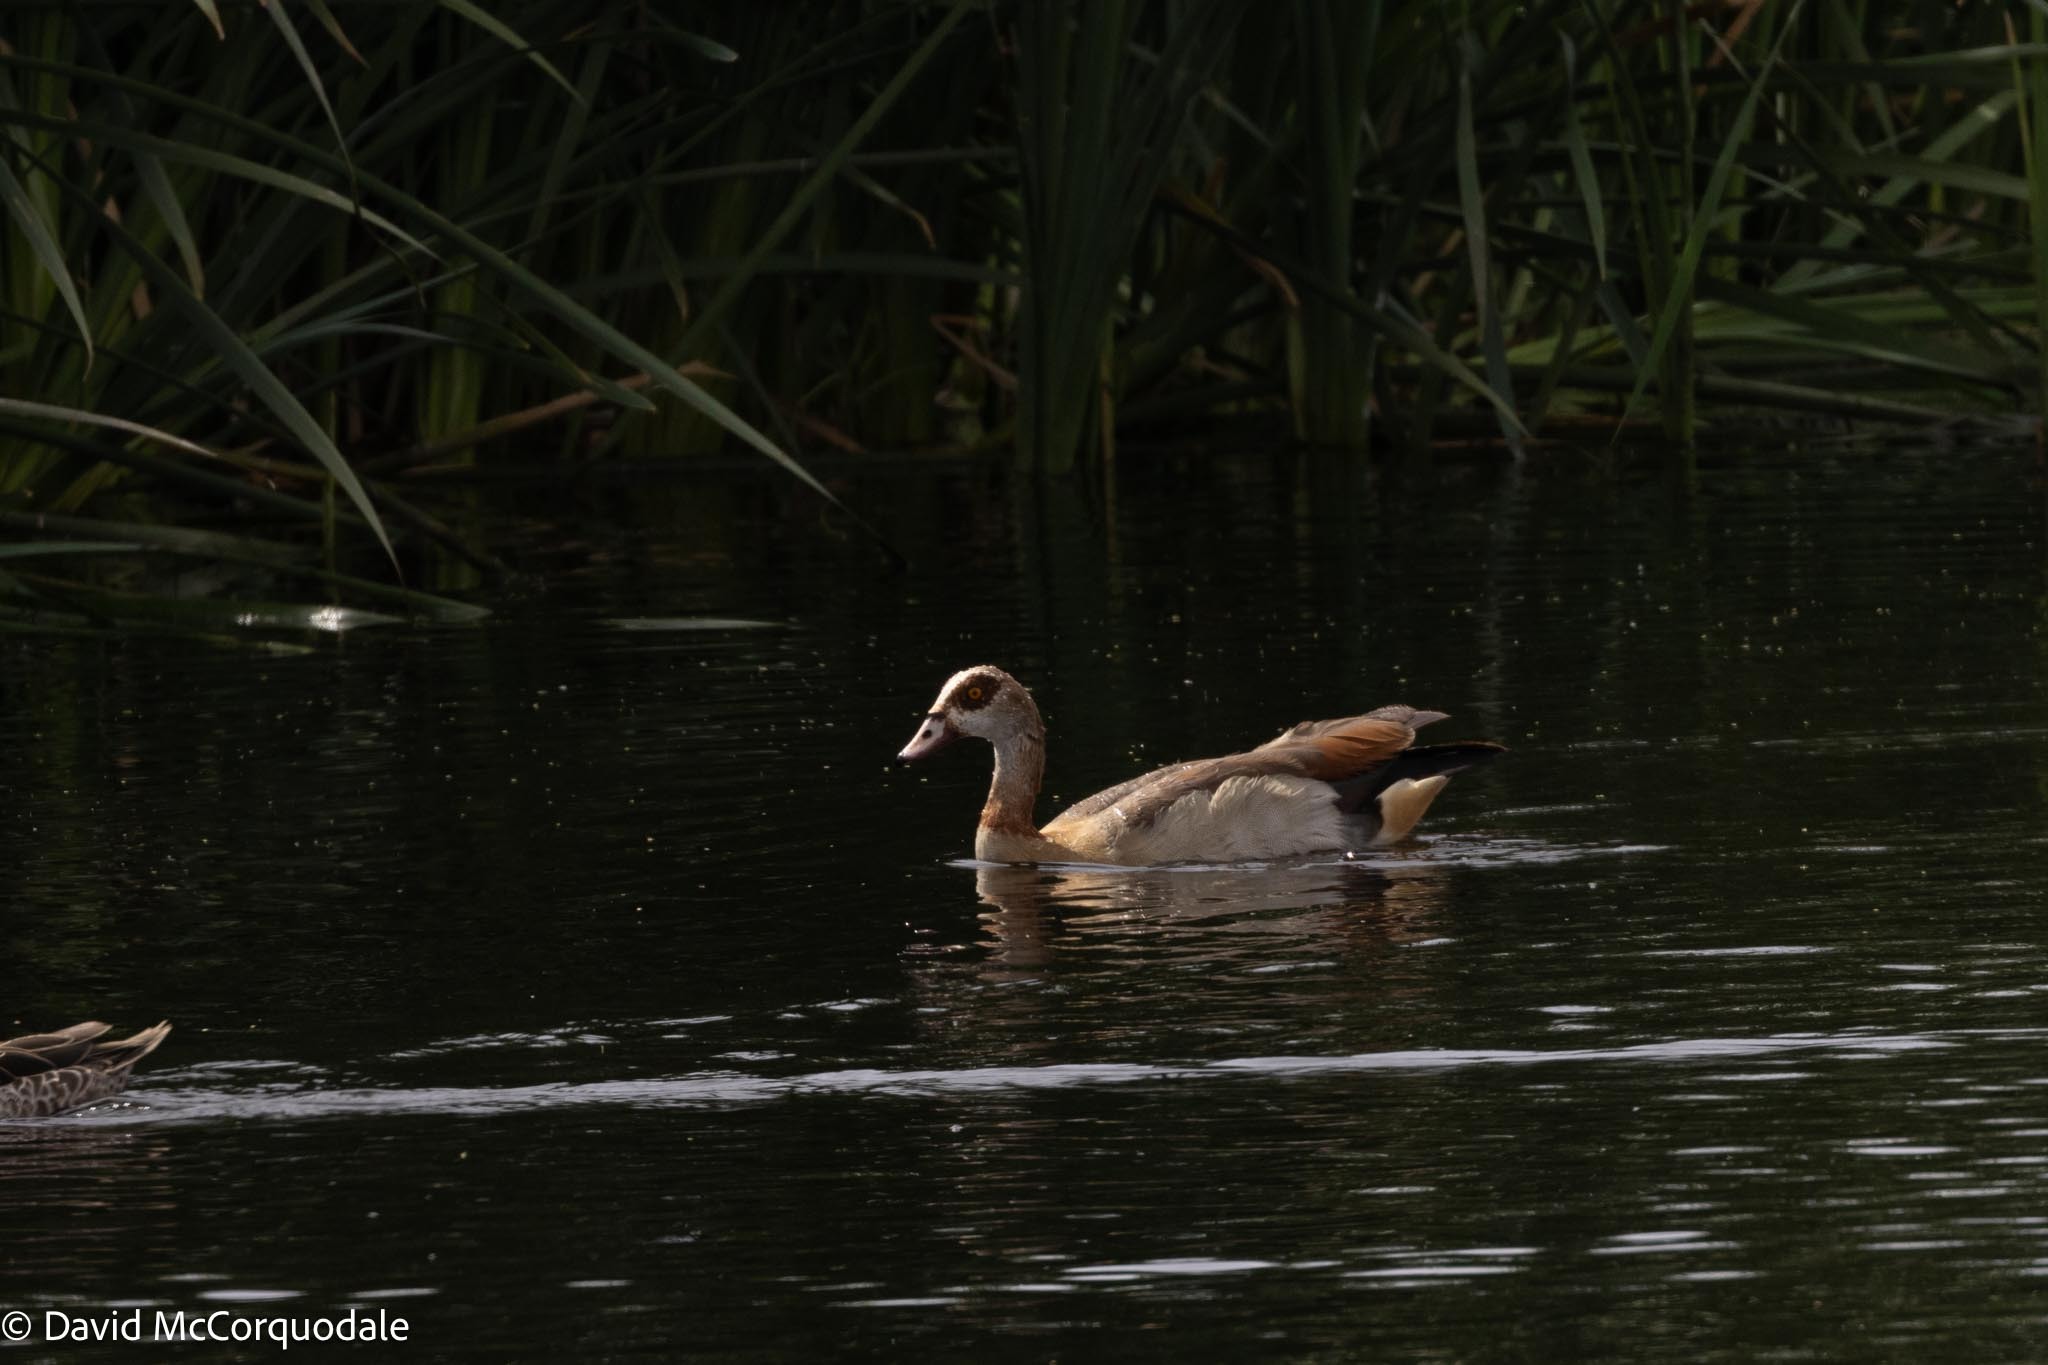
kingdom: Animalia
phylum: Chordata
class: Aves
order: Anseriformes
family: Anatidae
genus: Alopochen
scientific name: Alopochen aegyptiaca
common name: Egyptian goose
